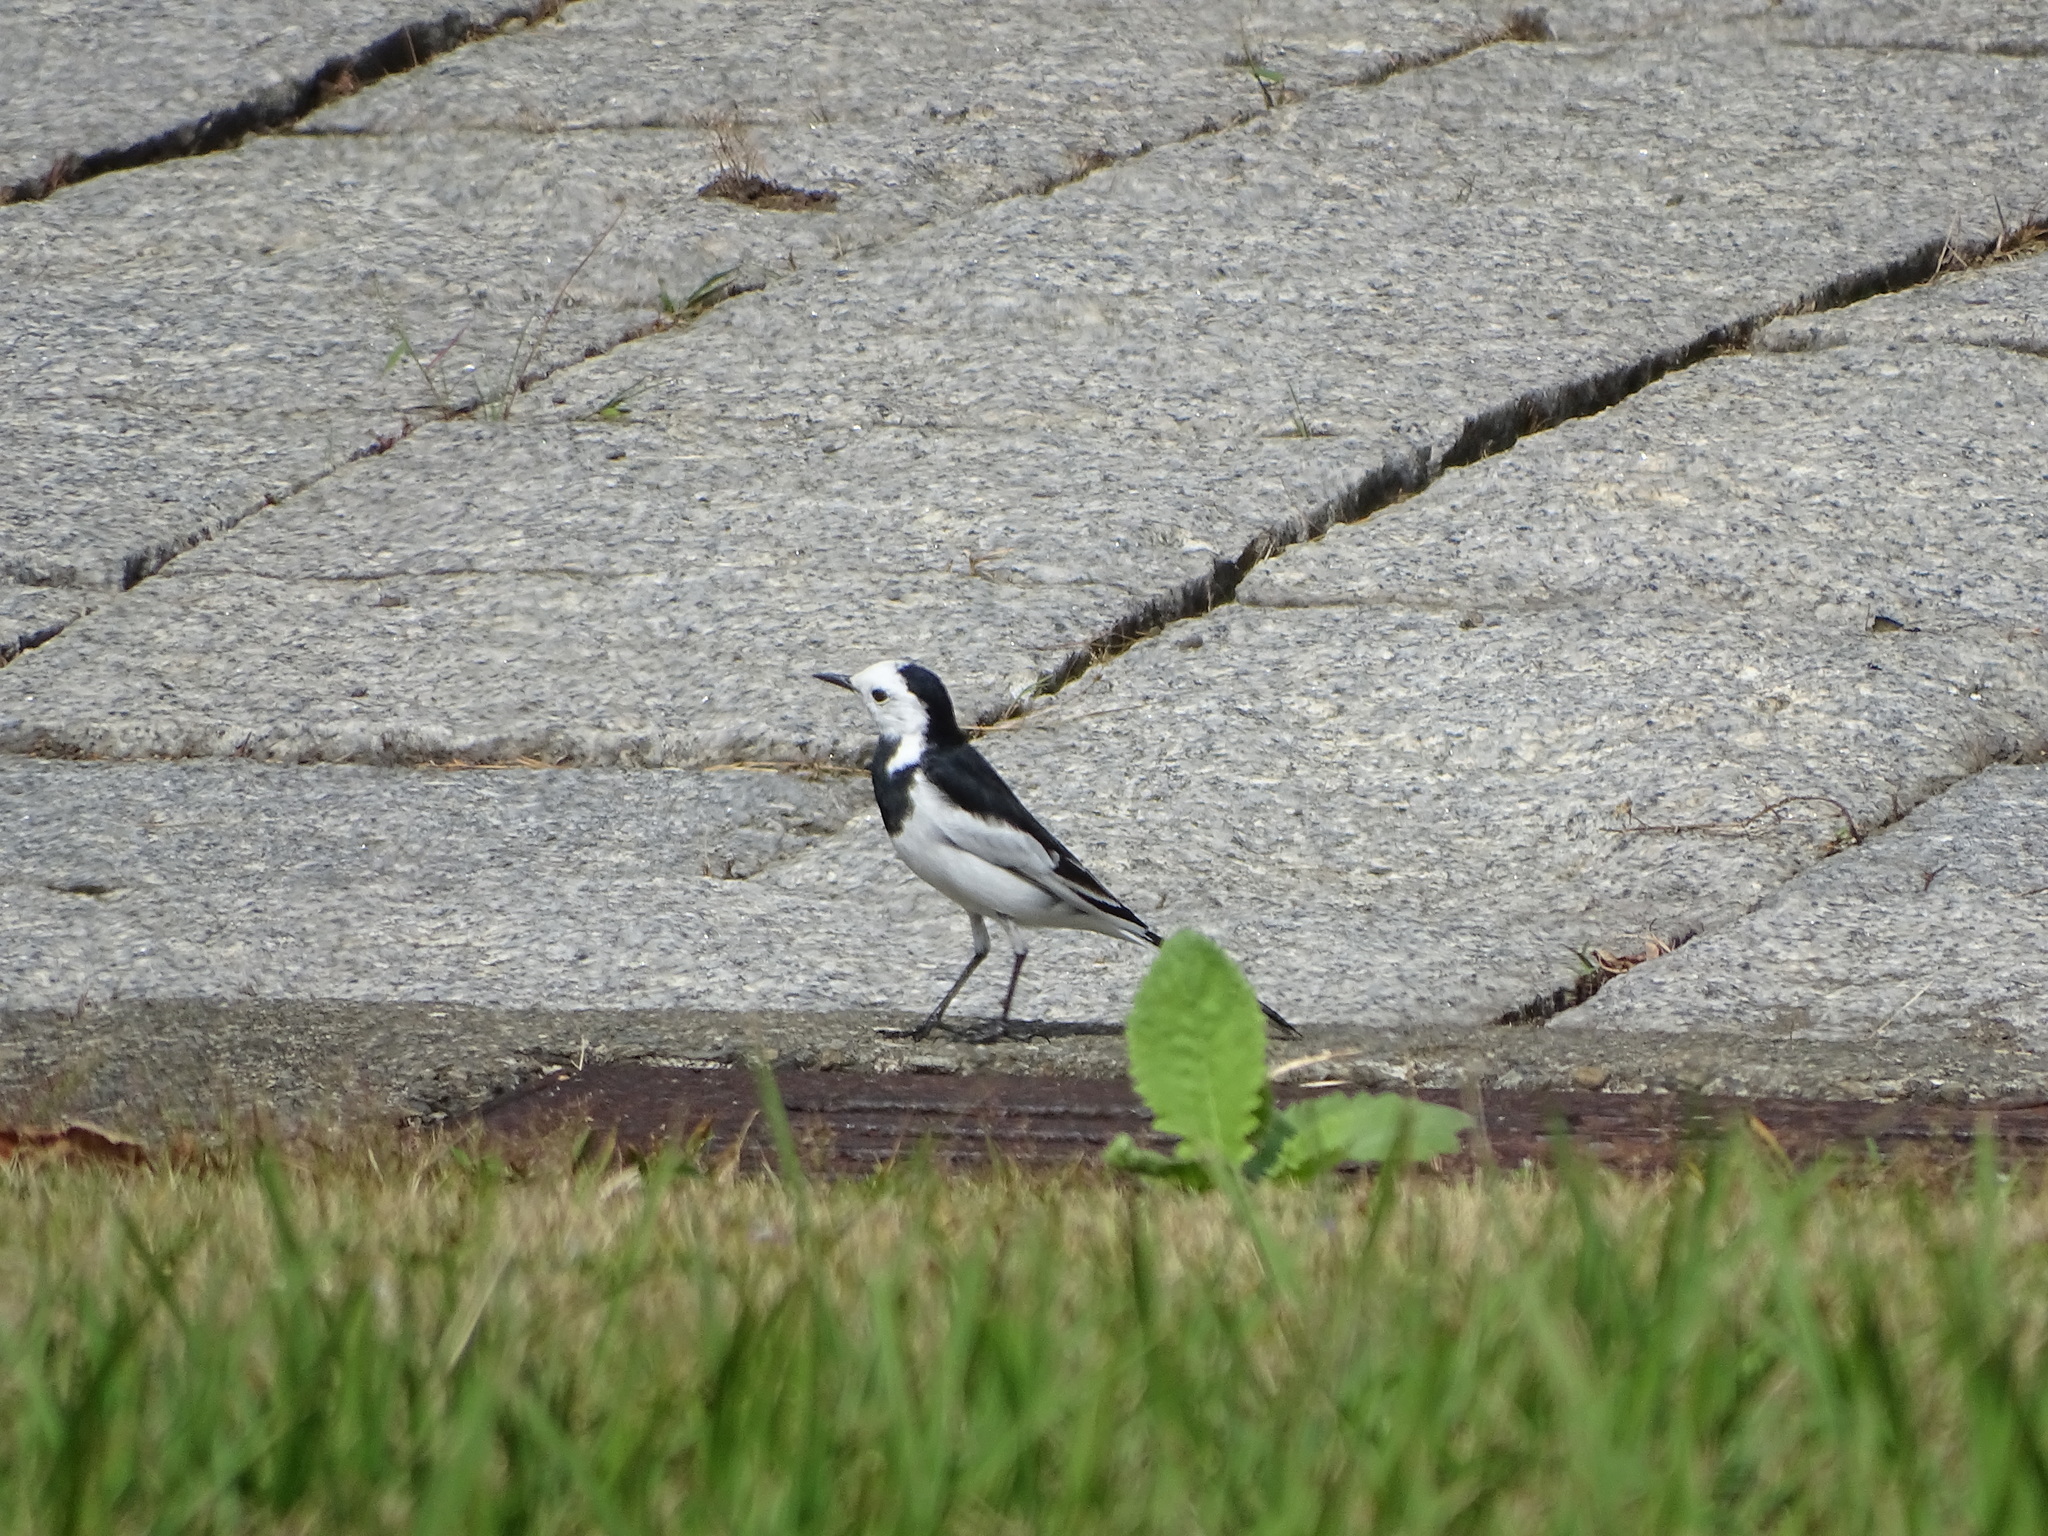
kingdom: Animalia
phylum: Chordata
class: Aves
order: Passeriformes
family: Motacillidae
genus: Motacilla
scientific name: Motacilla alba
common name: White wagtail
